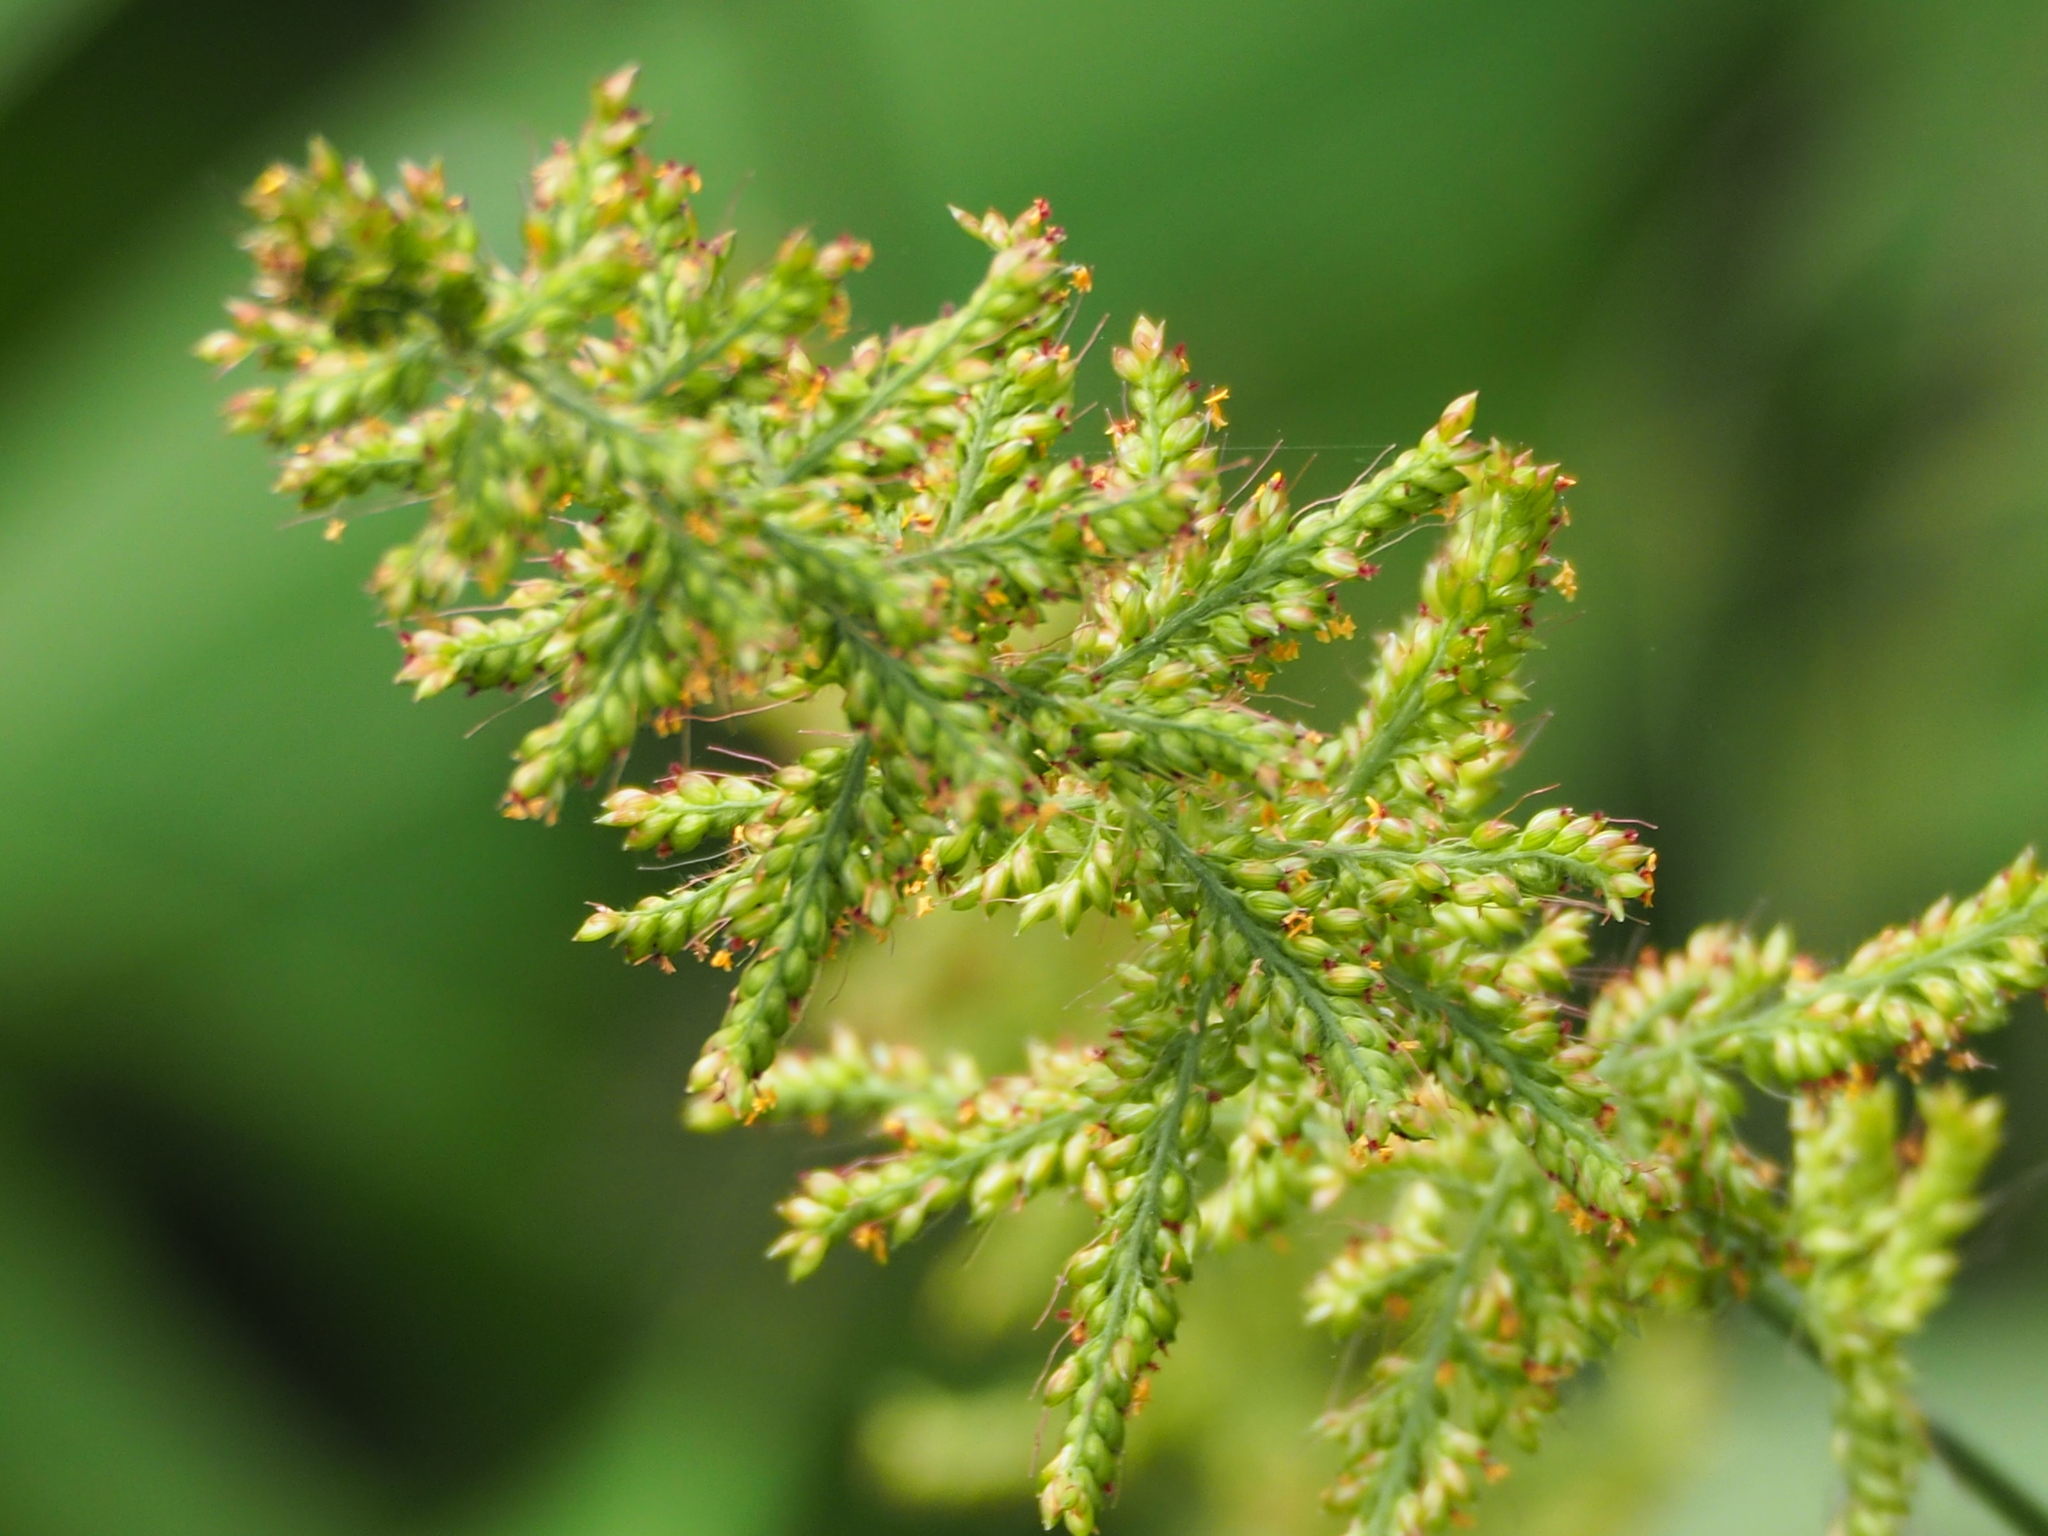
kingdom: Plantae
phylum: Tracheophyta
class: Liliopsida
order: Poales
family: Poaceae
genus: Setaria
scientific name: Setaria barbata
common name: East indian bristlegrass
